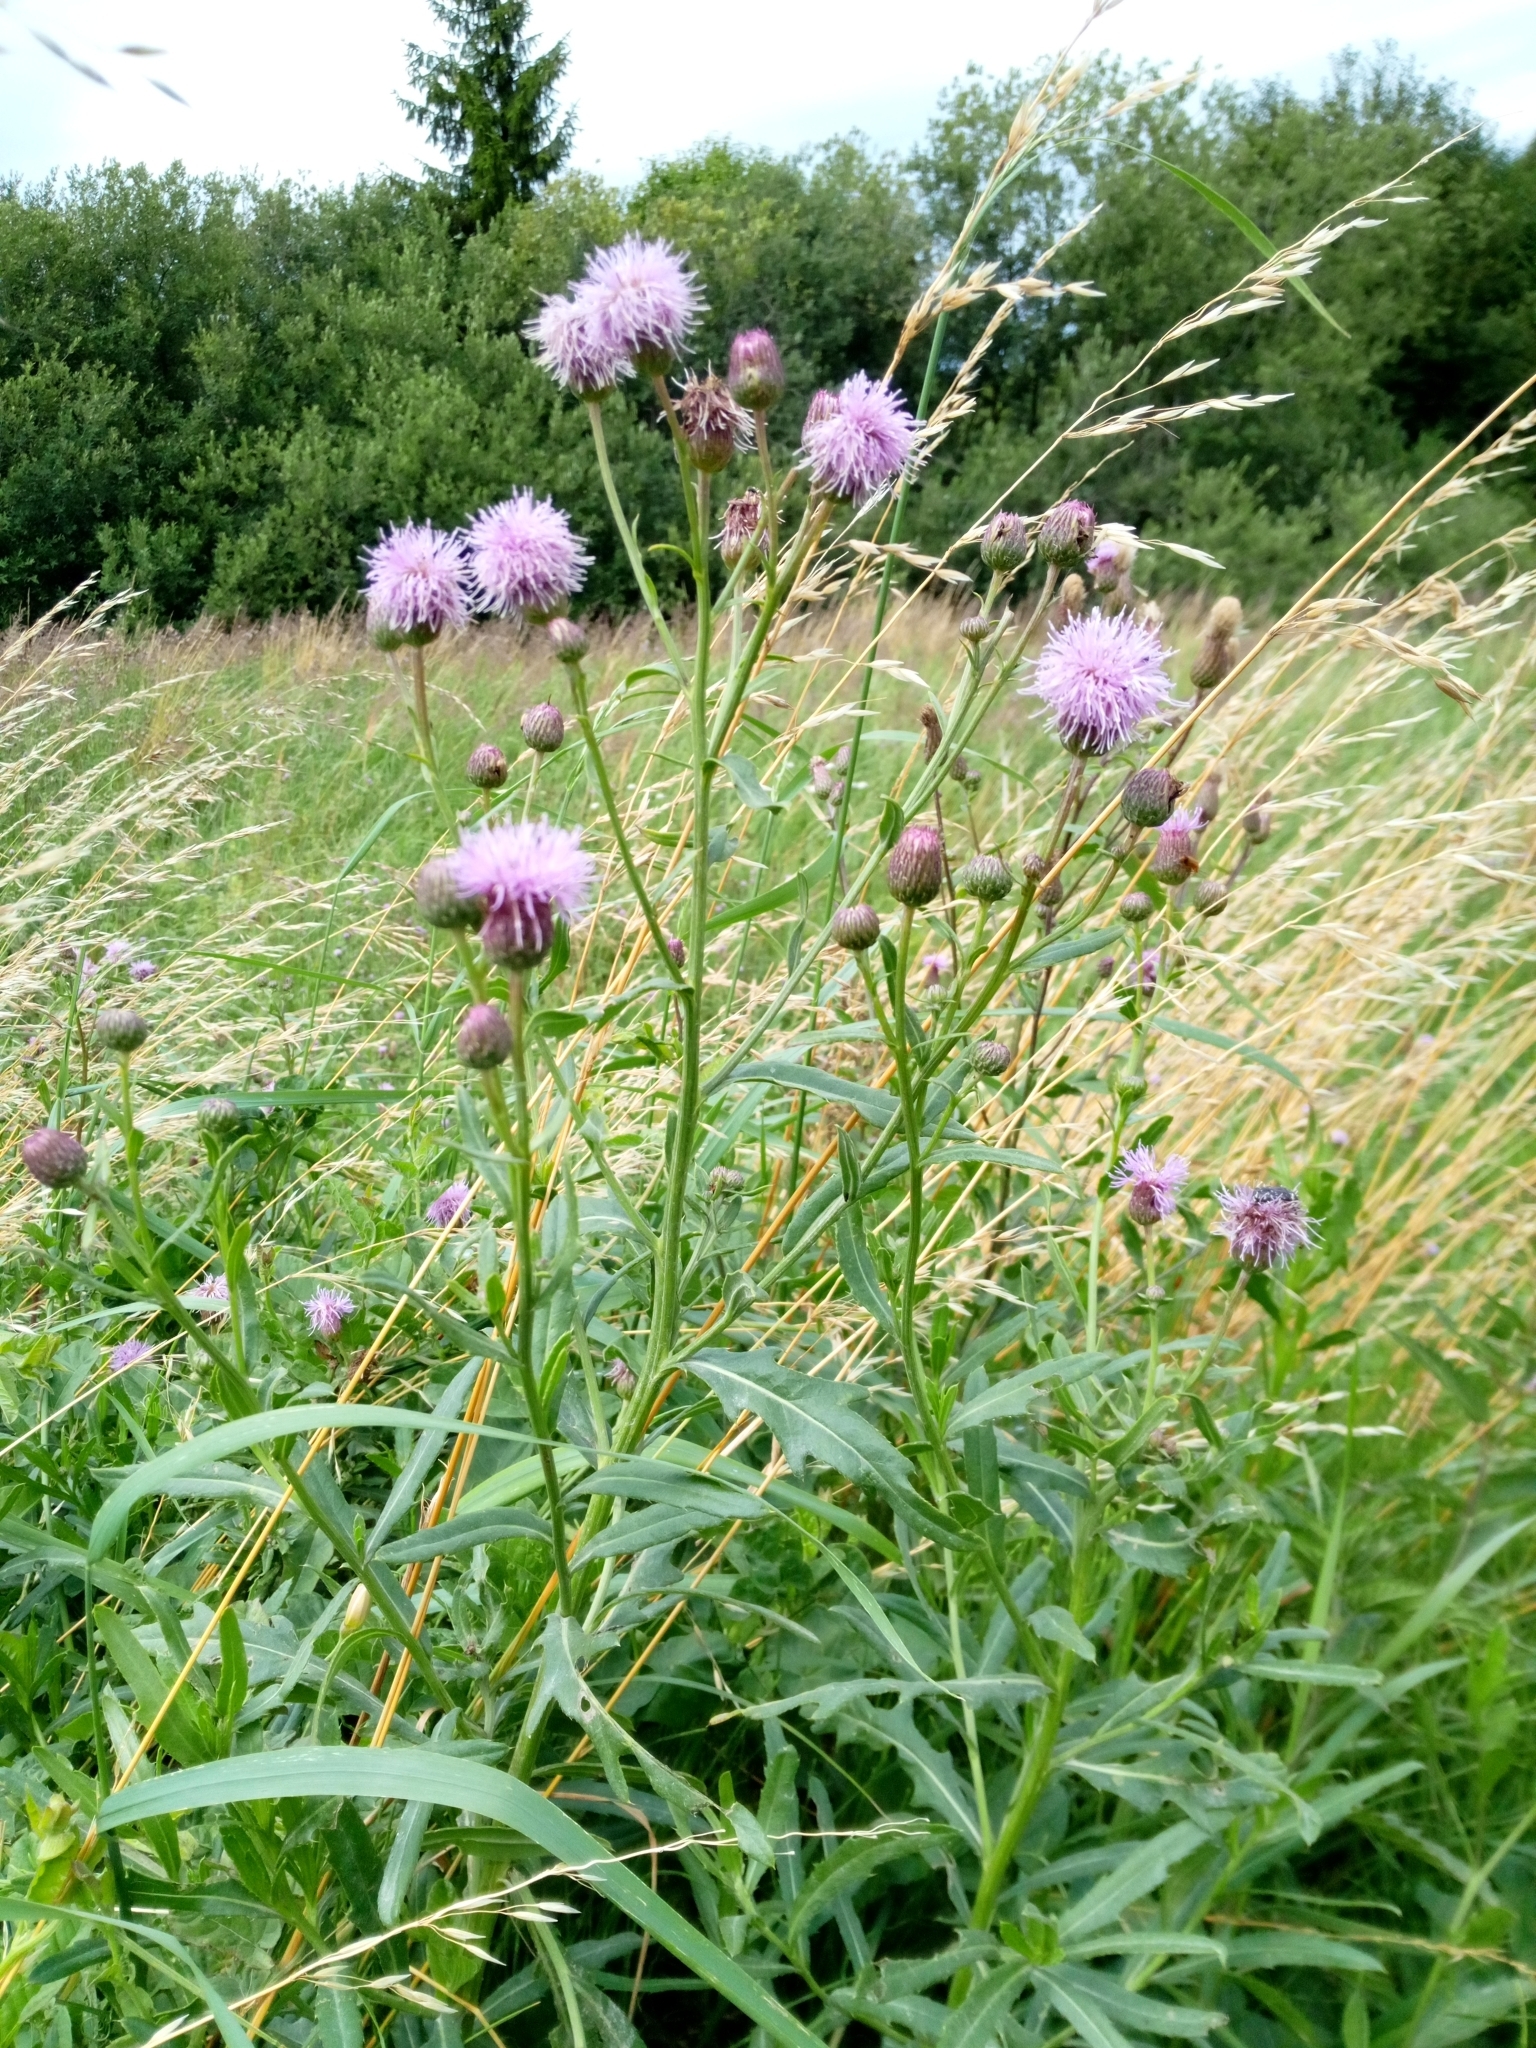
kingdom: Plantae
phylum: Tracheophyta
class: Magnoliopsida
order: Asterales
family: Asteraceae
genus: Cirsium
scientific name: Cirsium arvense
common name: Creeping thistle
